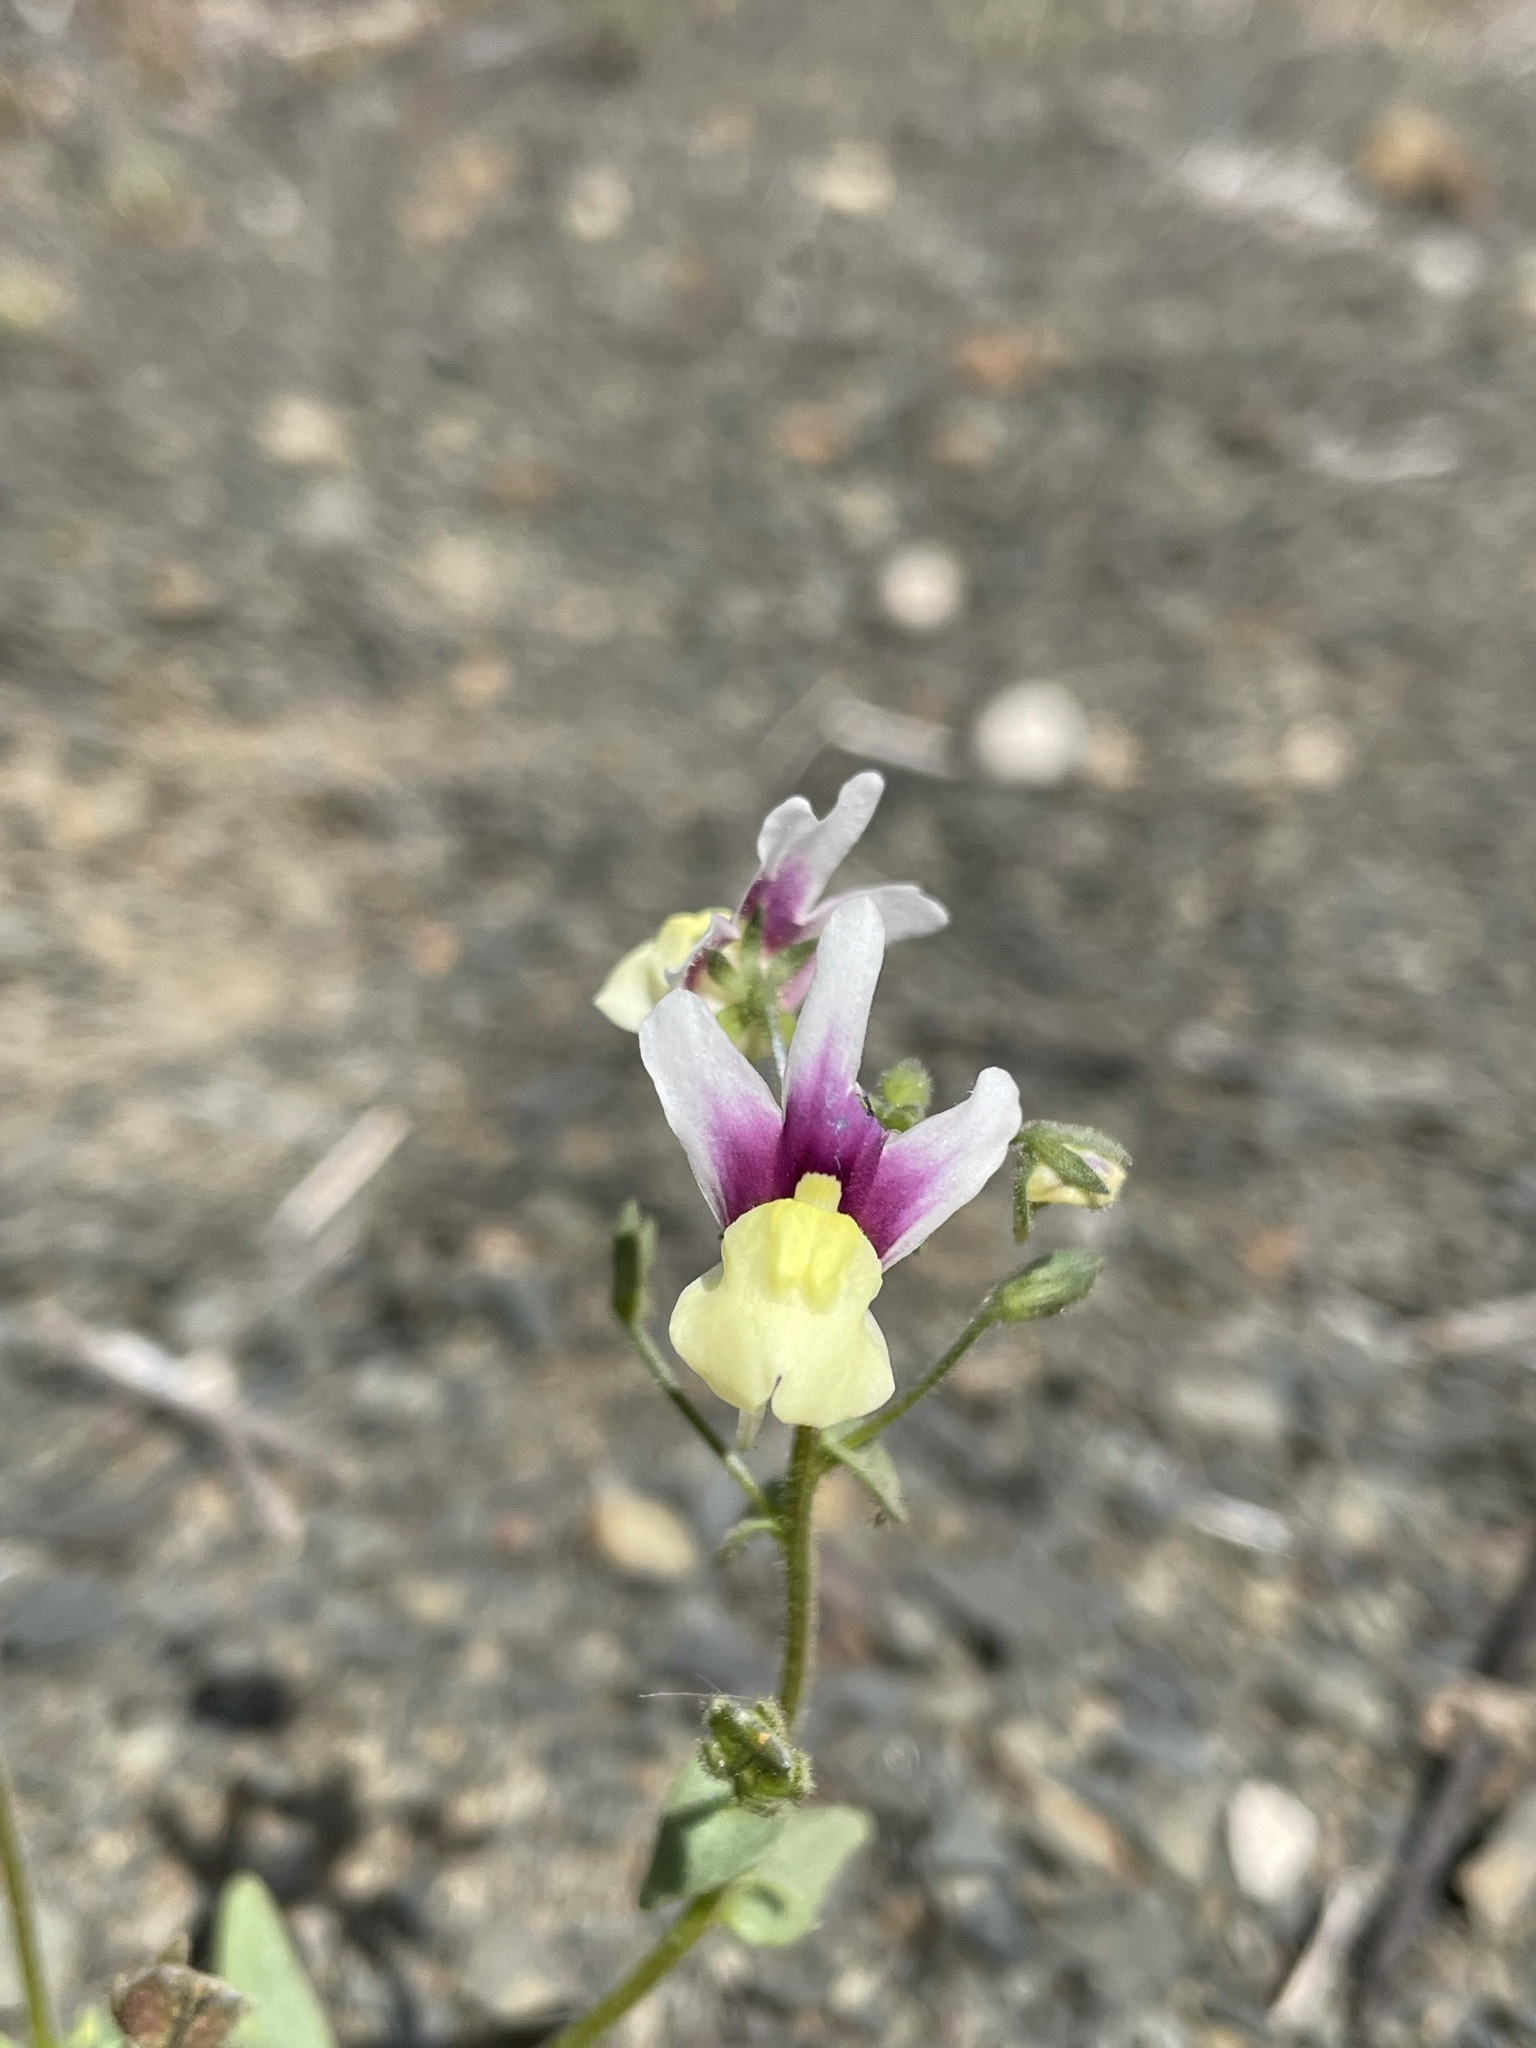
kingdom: Plantae
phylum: Tracheophyta
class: Magnoliopsida
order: Lamiales
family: Scrophulariaceae
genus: Nemesia
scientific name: Nemesia suaveolens
